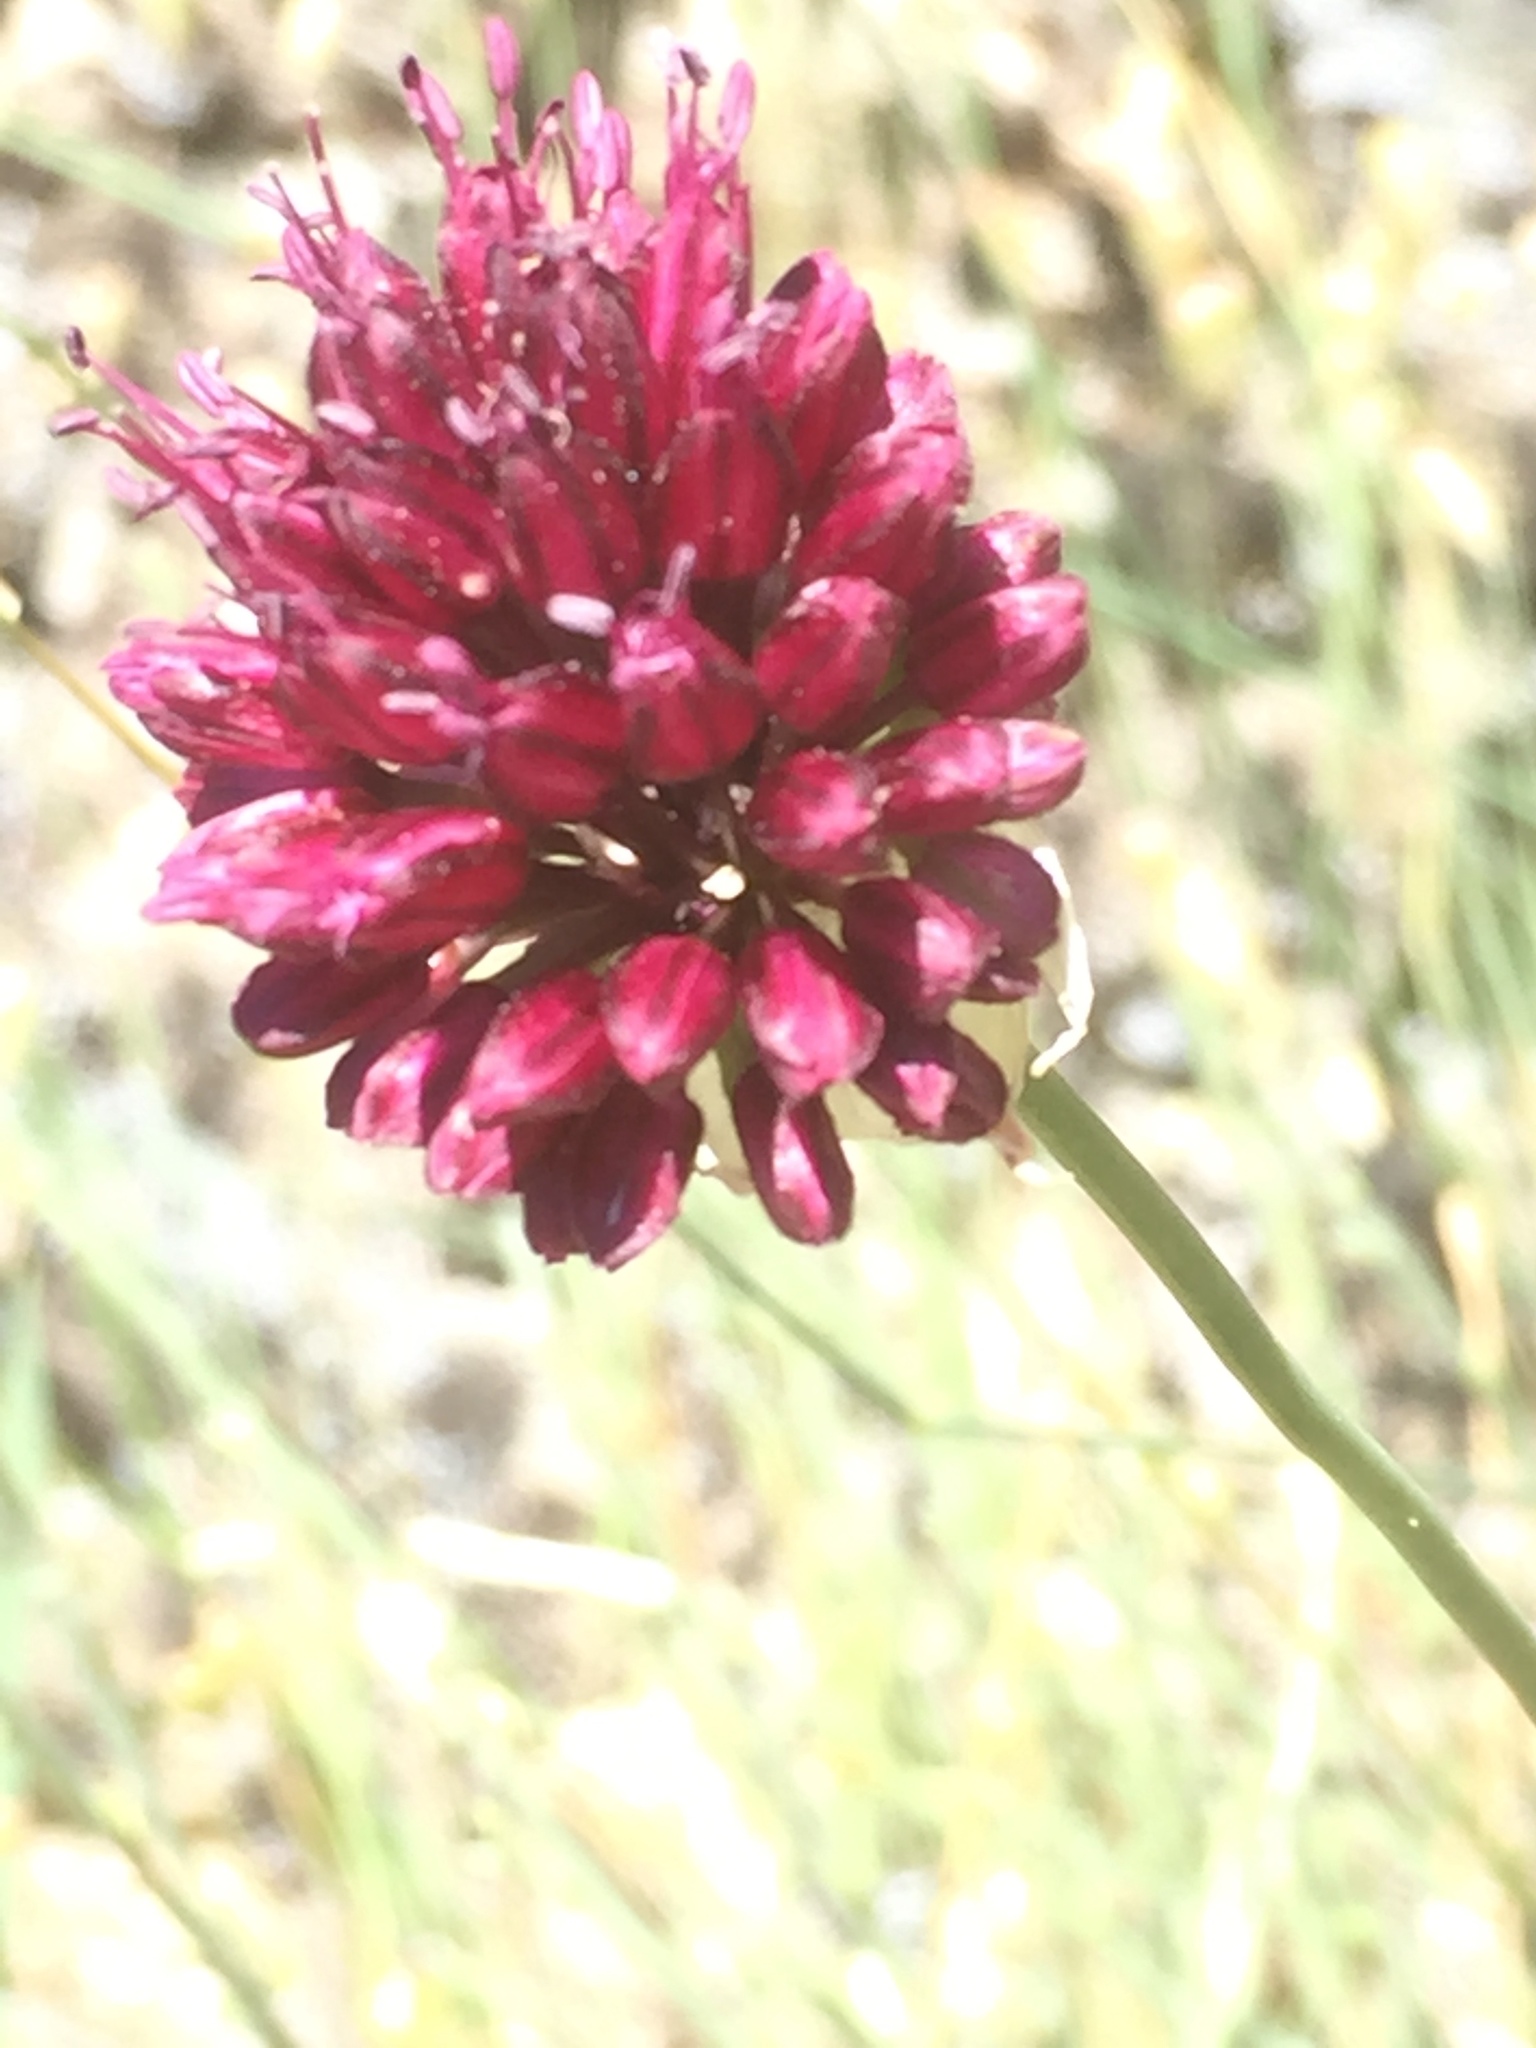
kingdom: Plantae
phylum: Tracheophyta
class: Liliopsida
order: Asparagales
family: Amaryllidaceae
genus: Allium
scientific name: Allium sphaerocephalon
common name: Round-headed leek
